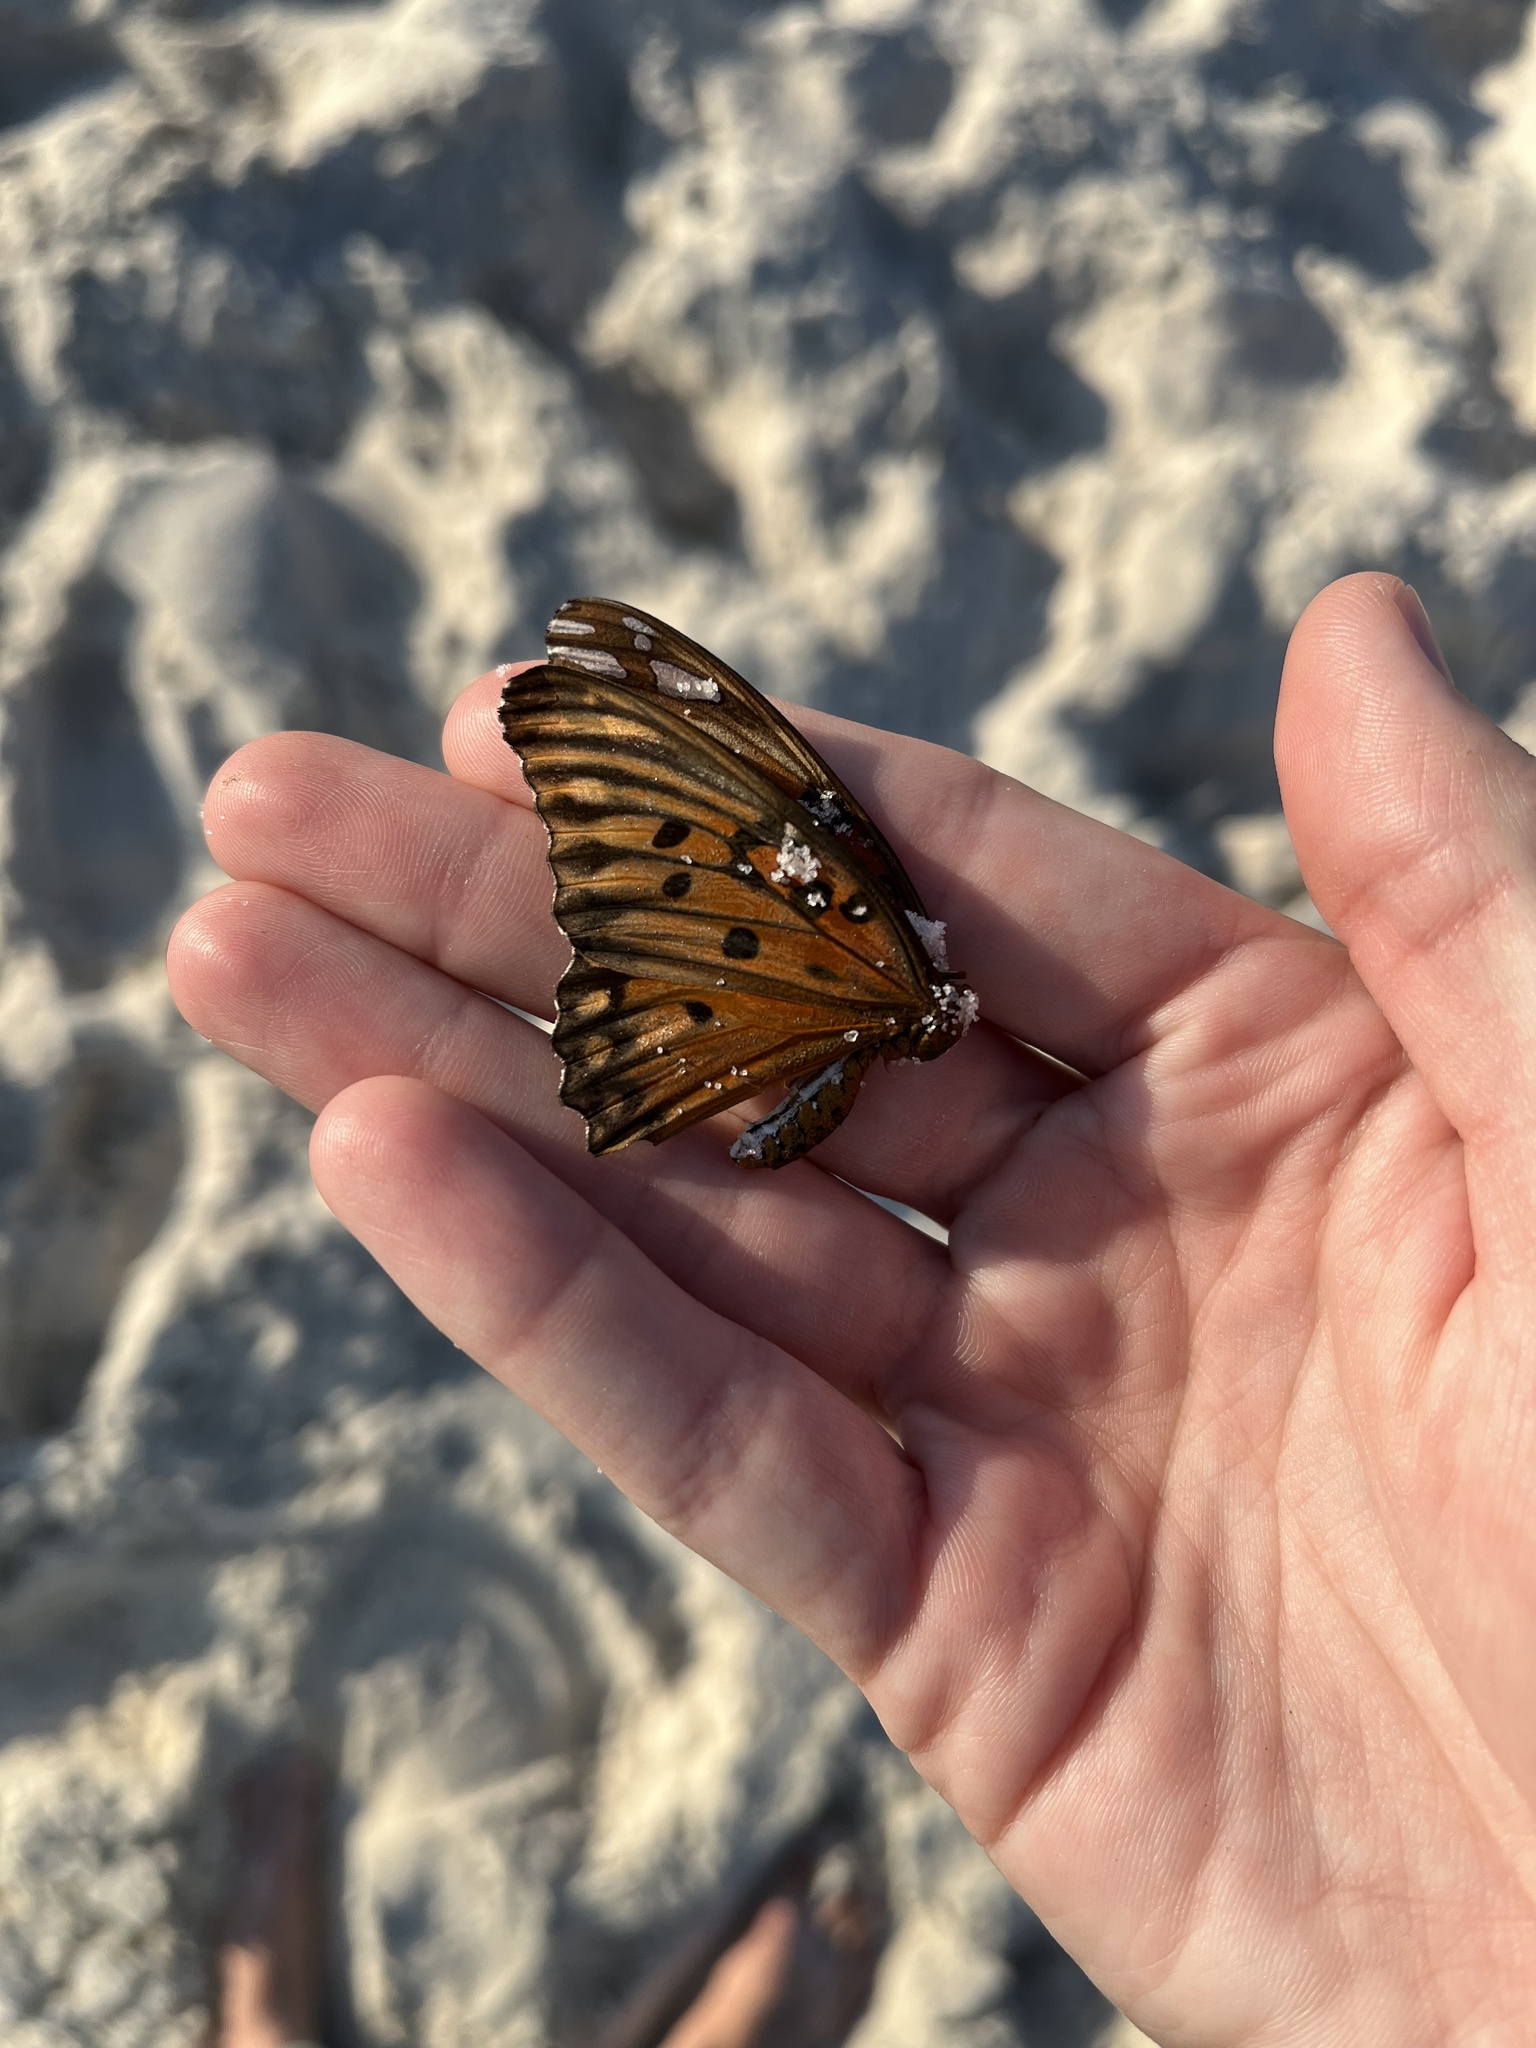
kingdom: Animalia
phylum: Arthropoda
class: Insecta
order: Lepidoptera
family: Nymphalidae
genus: Dione
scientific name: Dione vanillae
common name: Gulf fritillary
